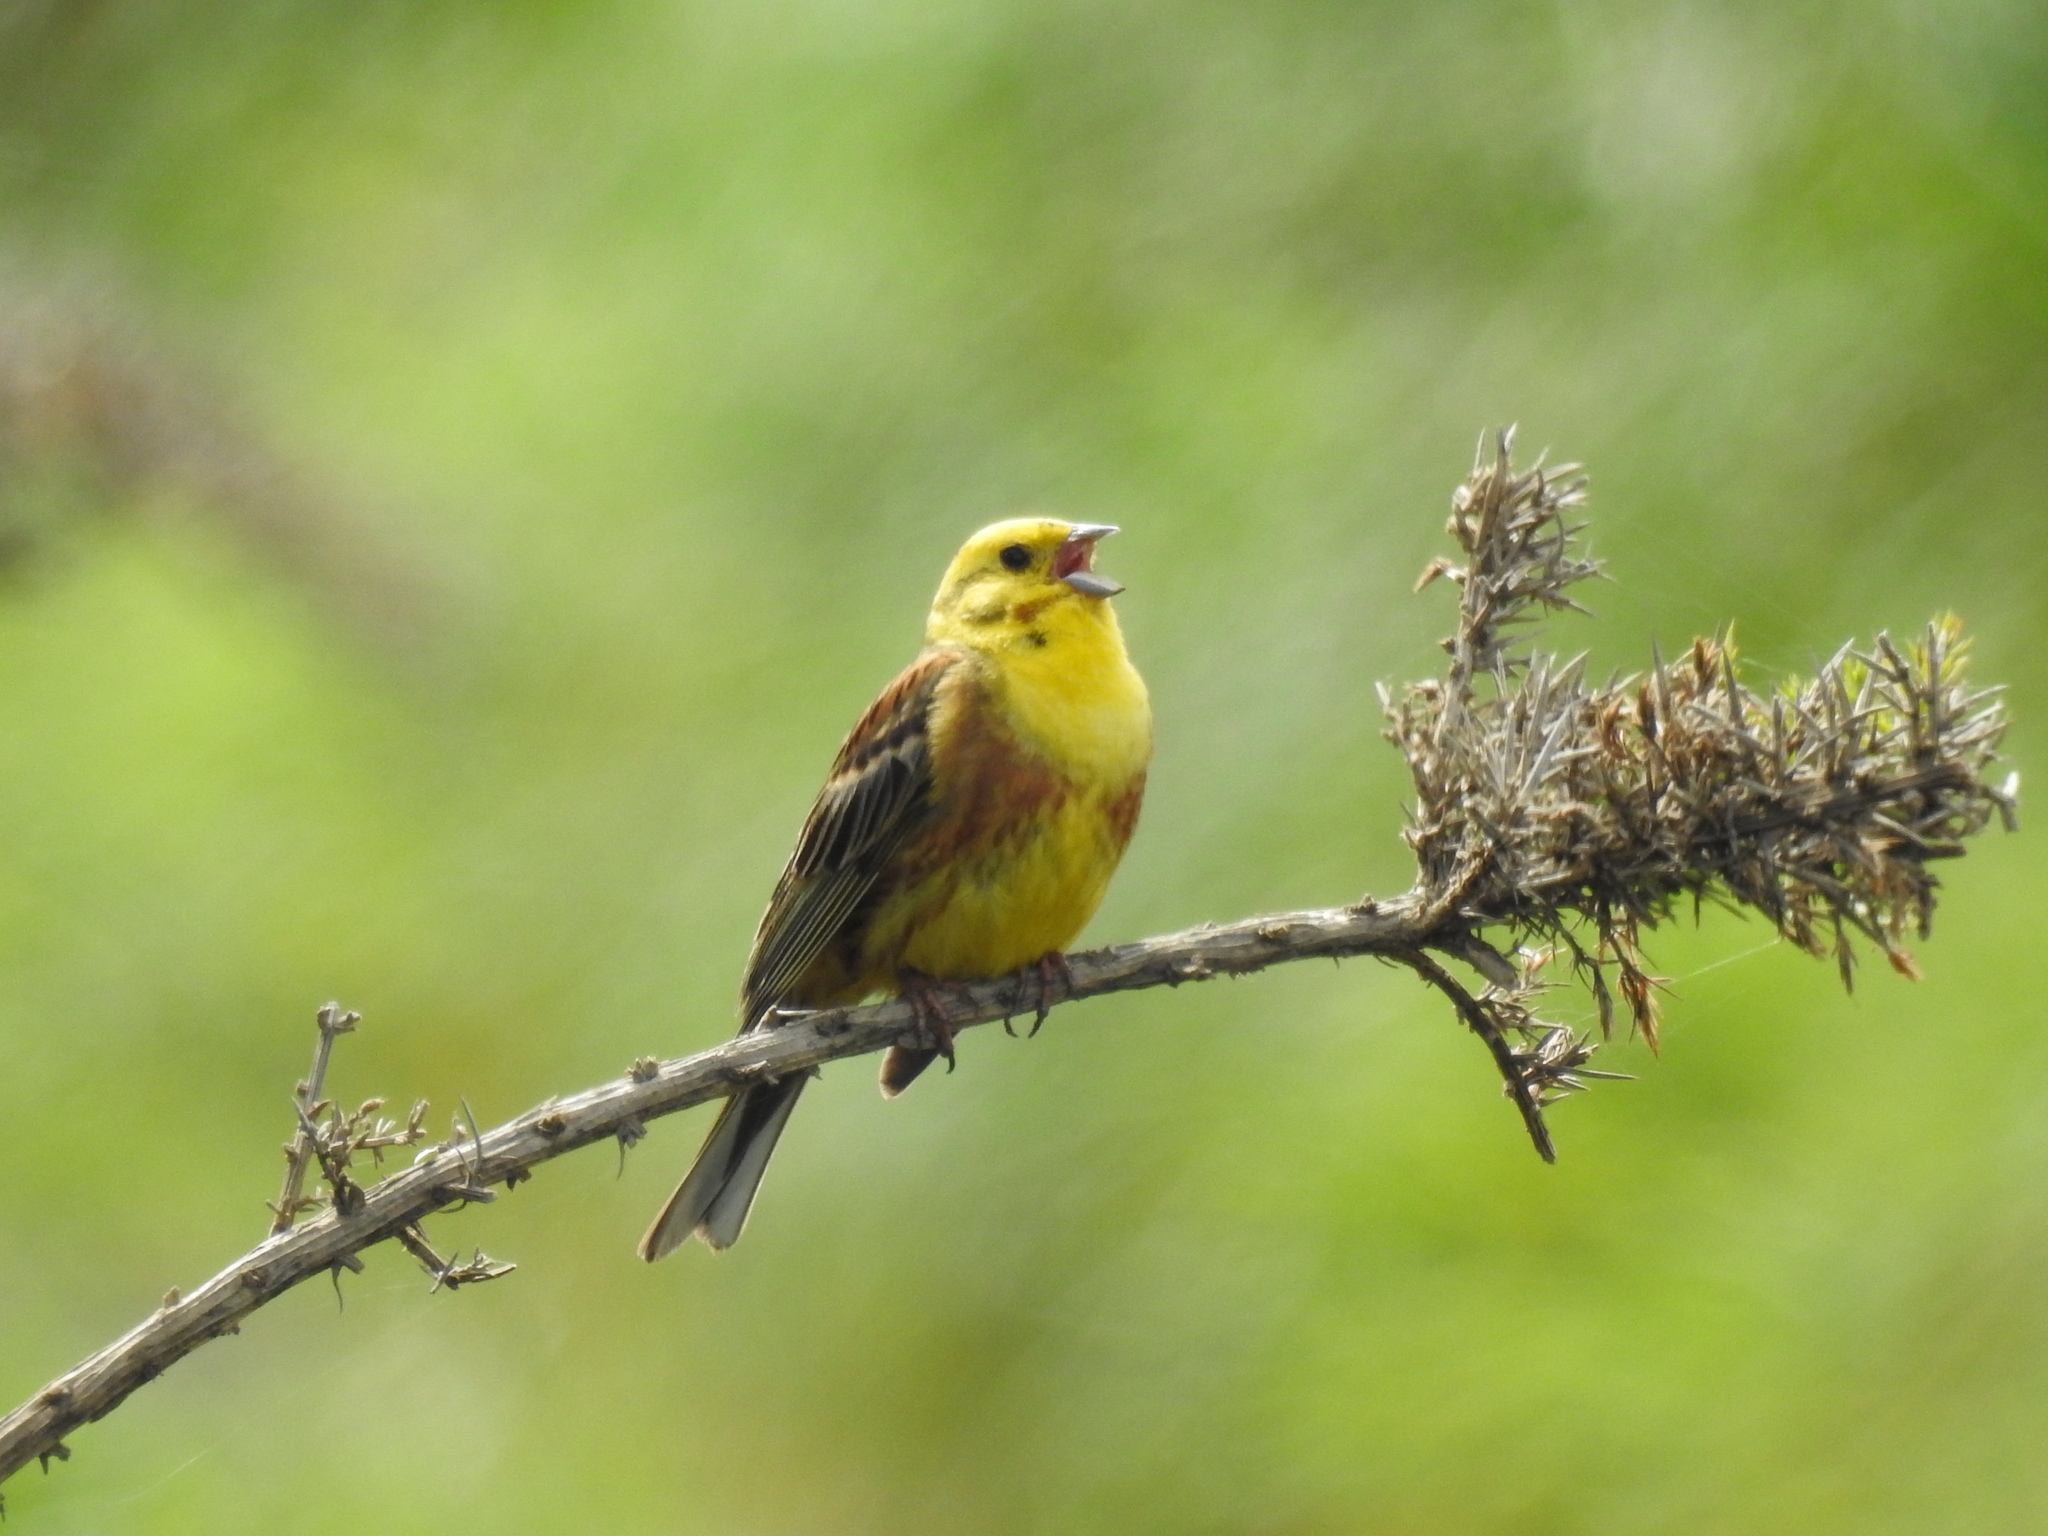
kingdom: Animalia
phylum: Chordata
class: Aves
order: Passeriformes
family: Emberizidae
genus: Emberiza
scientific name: Emberiza citrinella
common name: Yellowhammer
